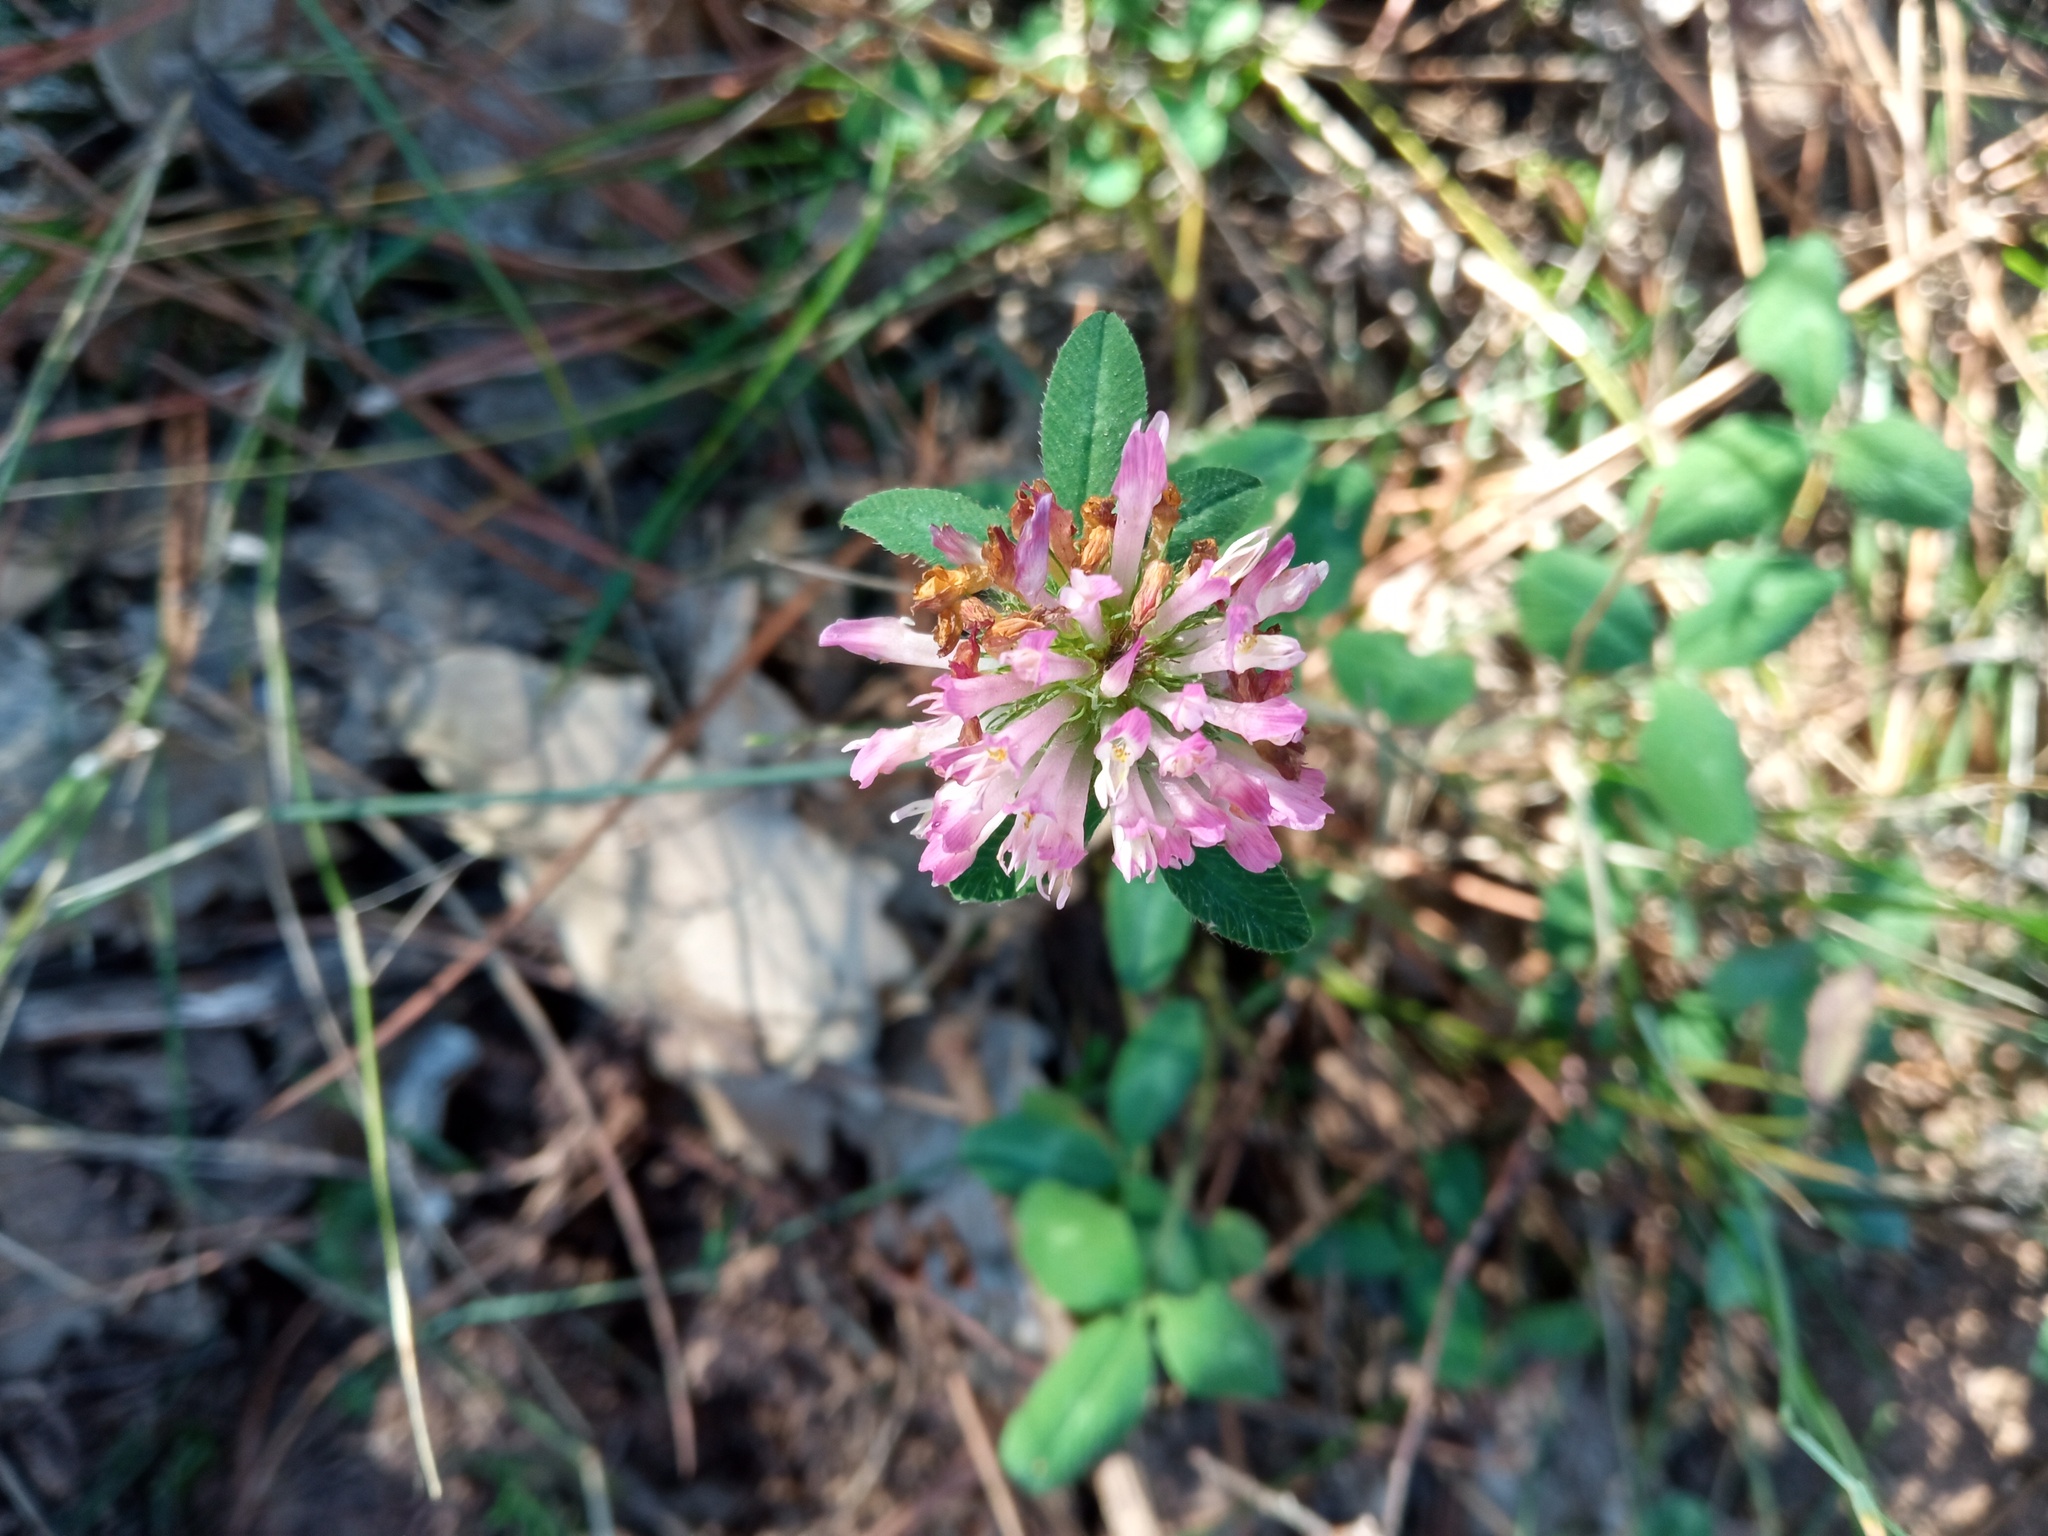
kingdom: Plantae
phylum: Tracheophyta
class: Magnoliopsida
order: Fabales
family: Fabaceae
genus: Trifolium
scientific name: Trifolium pratense
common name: Red clover
